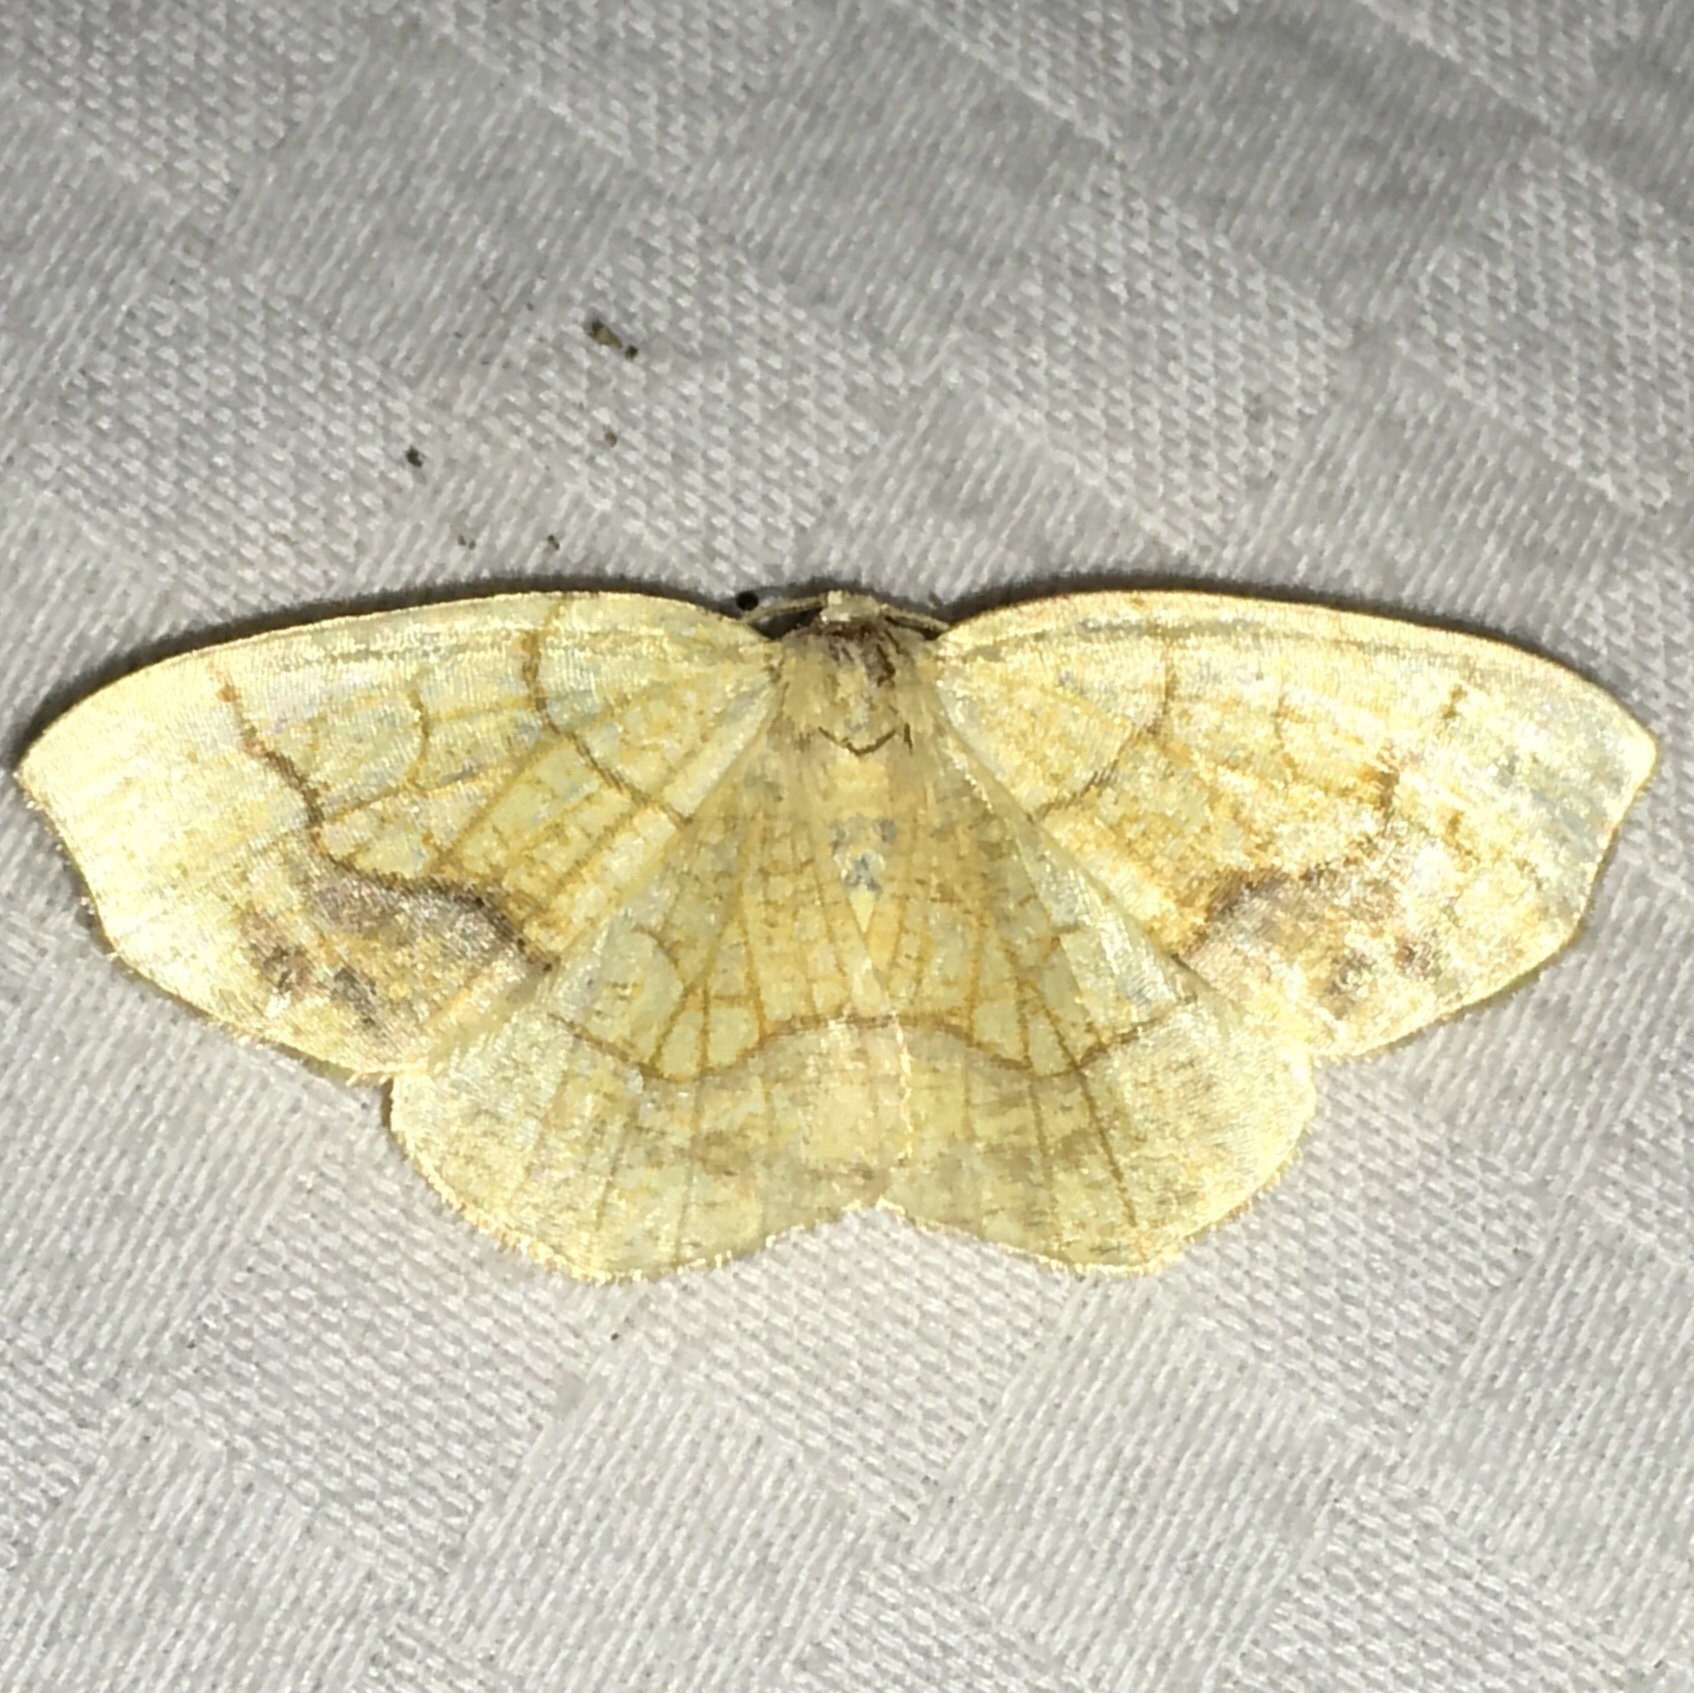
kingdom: Animalia
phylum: Arthropoda
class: Insecta
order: Lepidoptera
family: Geometridae
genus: Nematocampa
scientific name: Nematocampa resistaria
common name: Horned spanworm moth
